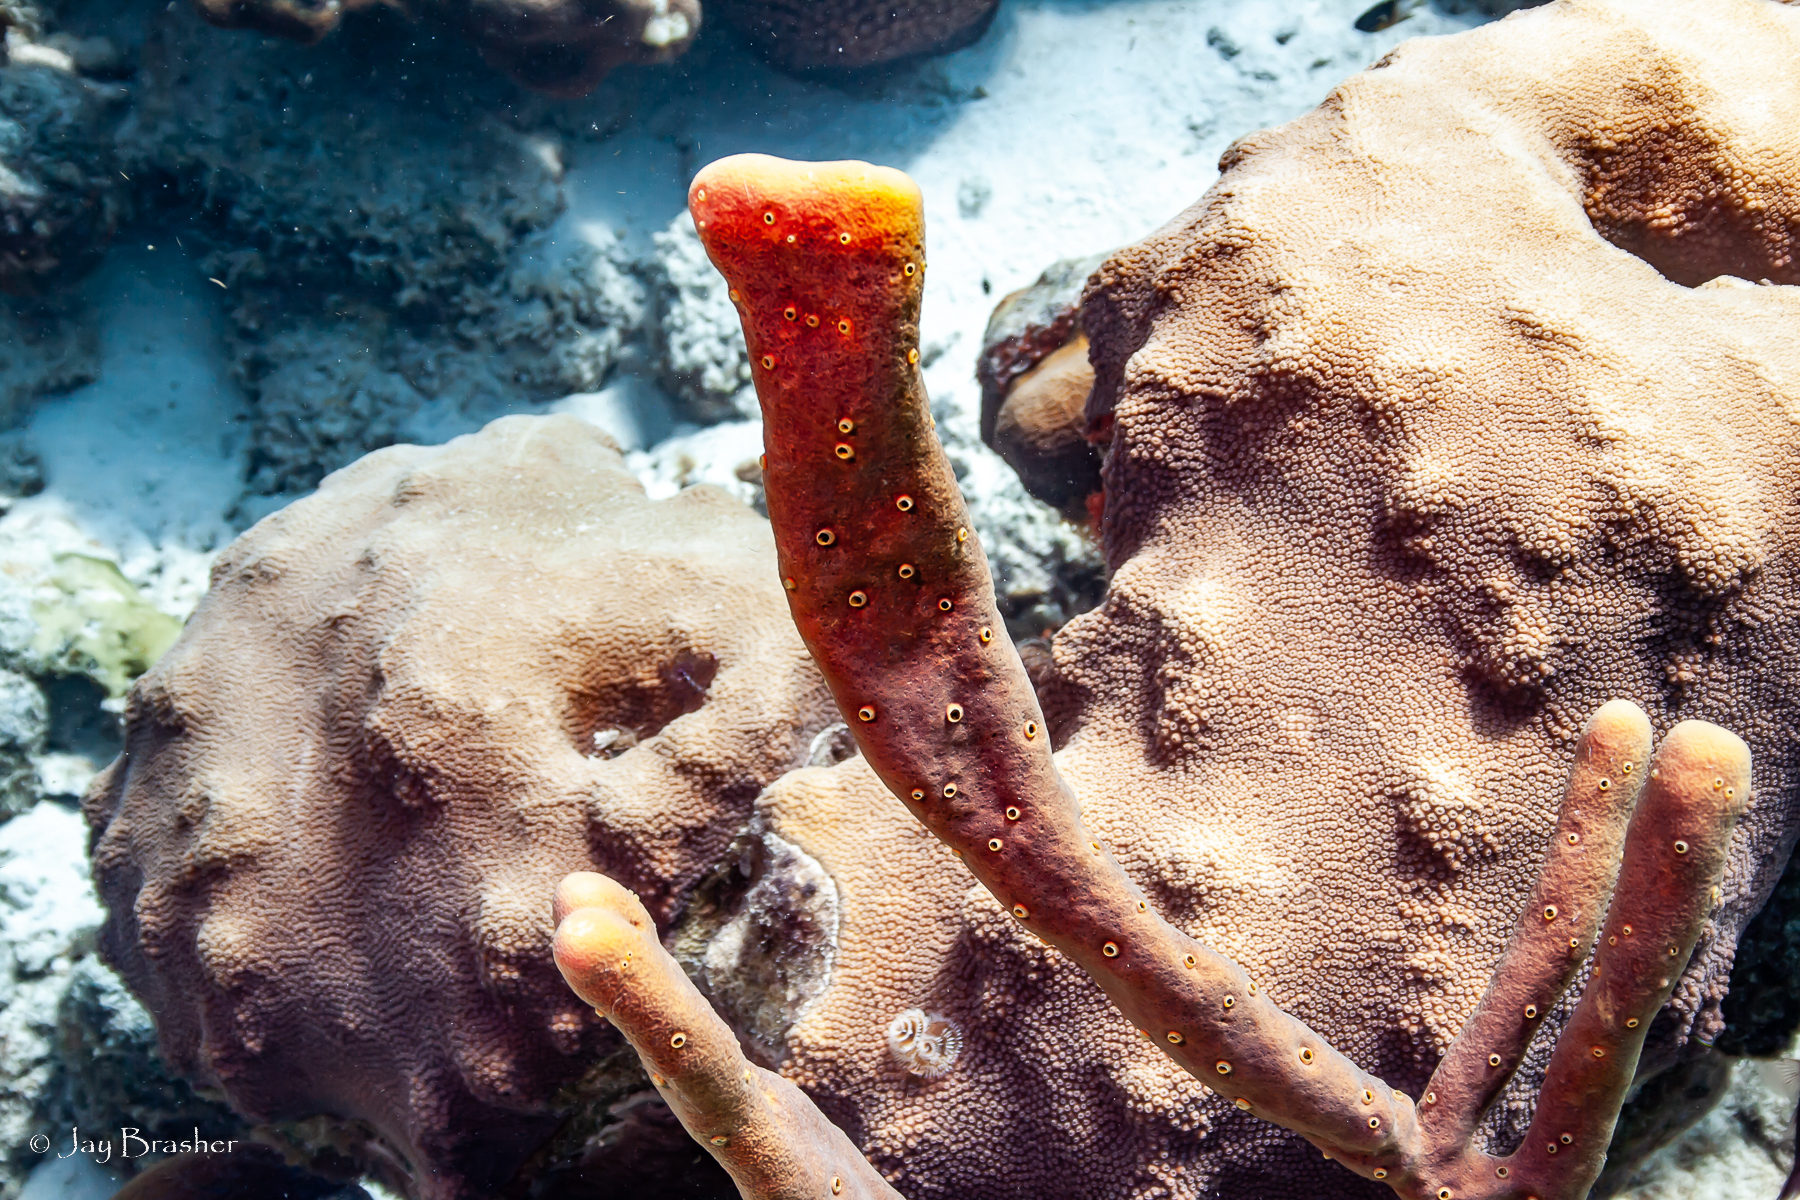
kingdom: Animalia
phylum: Cnidaria
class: Anthozoa
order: Scleractinia
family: Merulinidae
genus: Orbicella
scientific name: Orbicella faveolata
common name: Mountainous star coral
